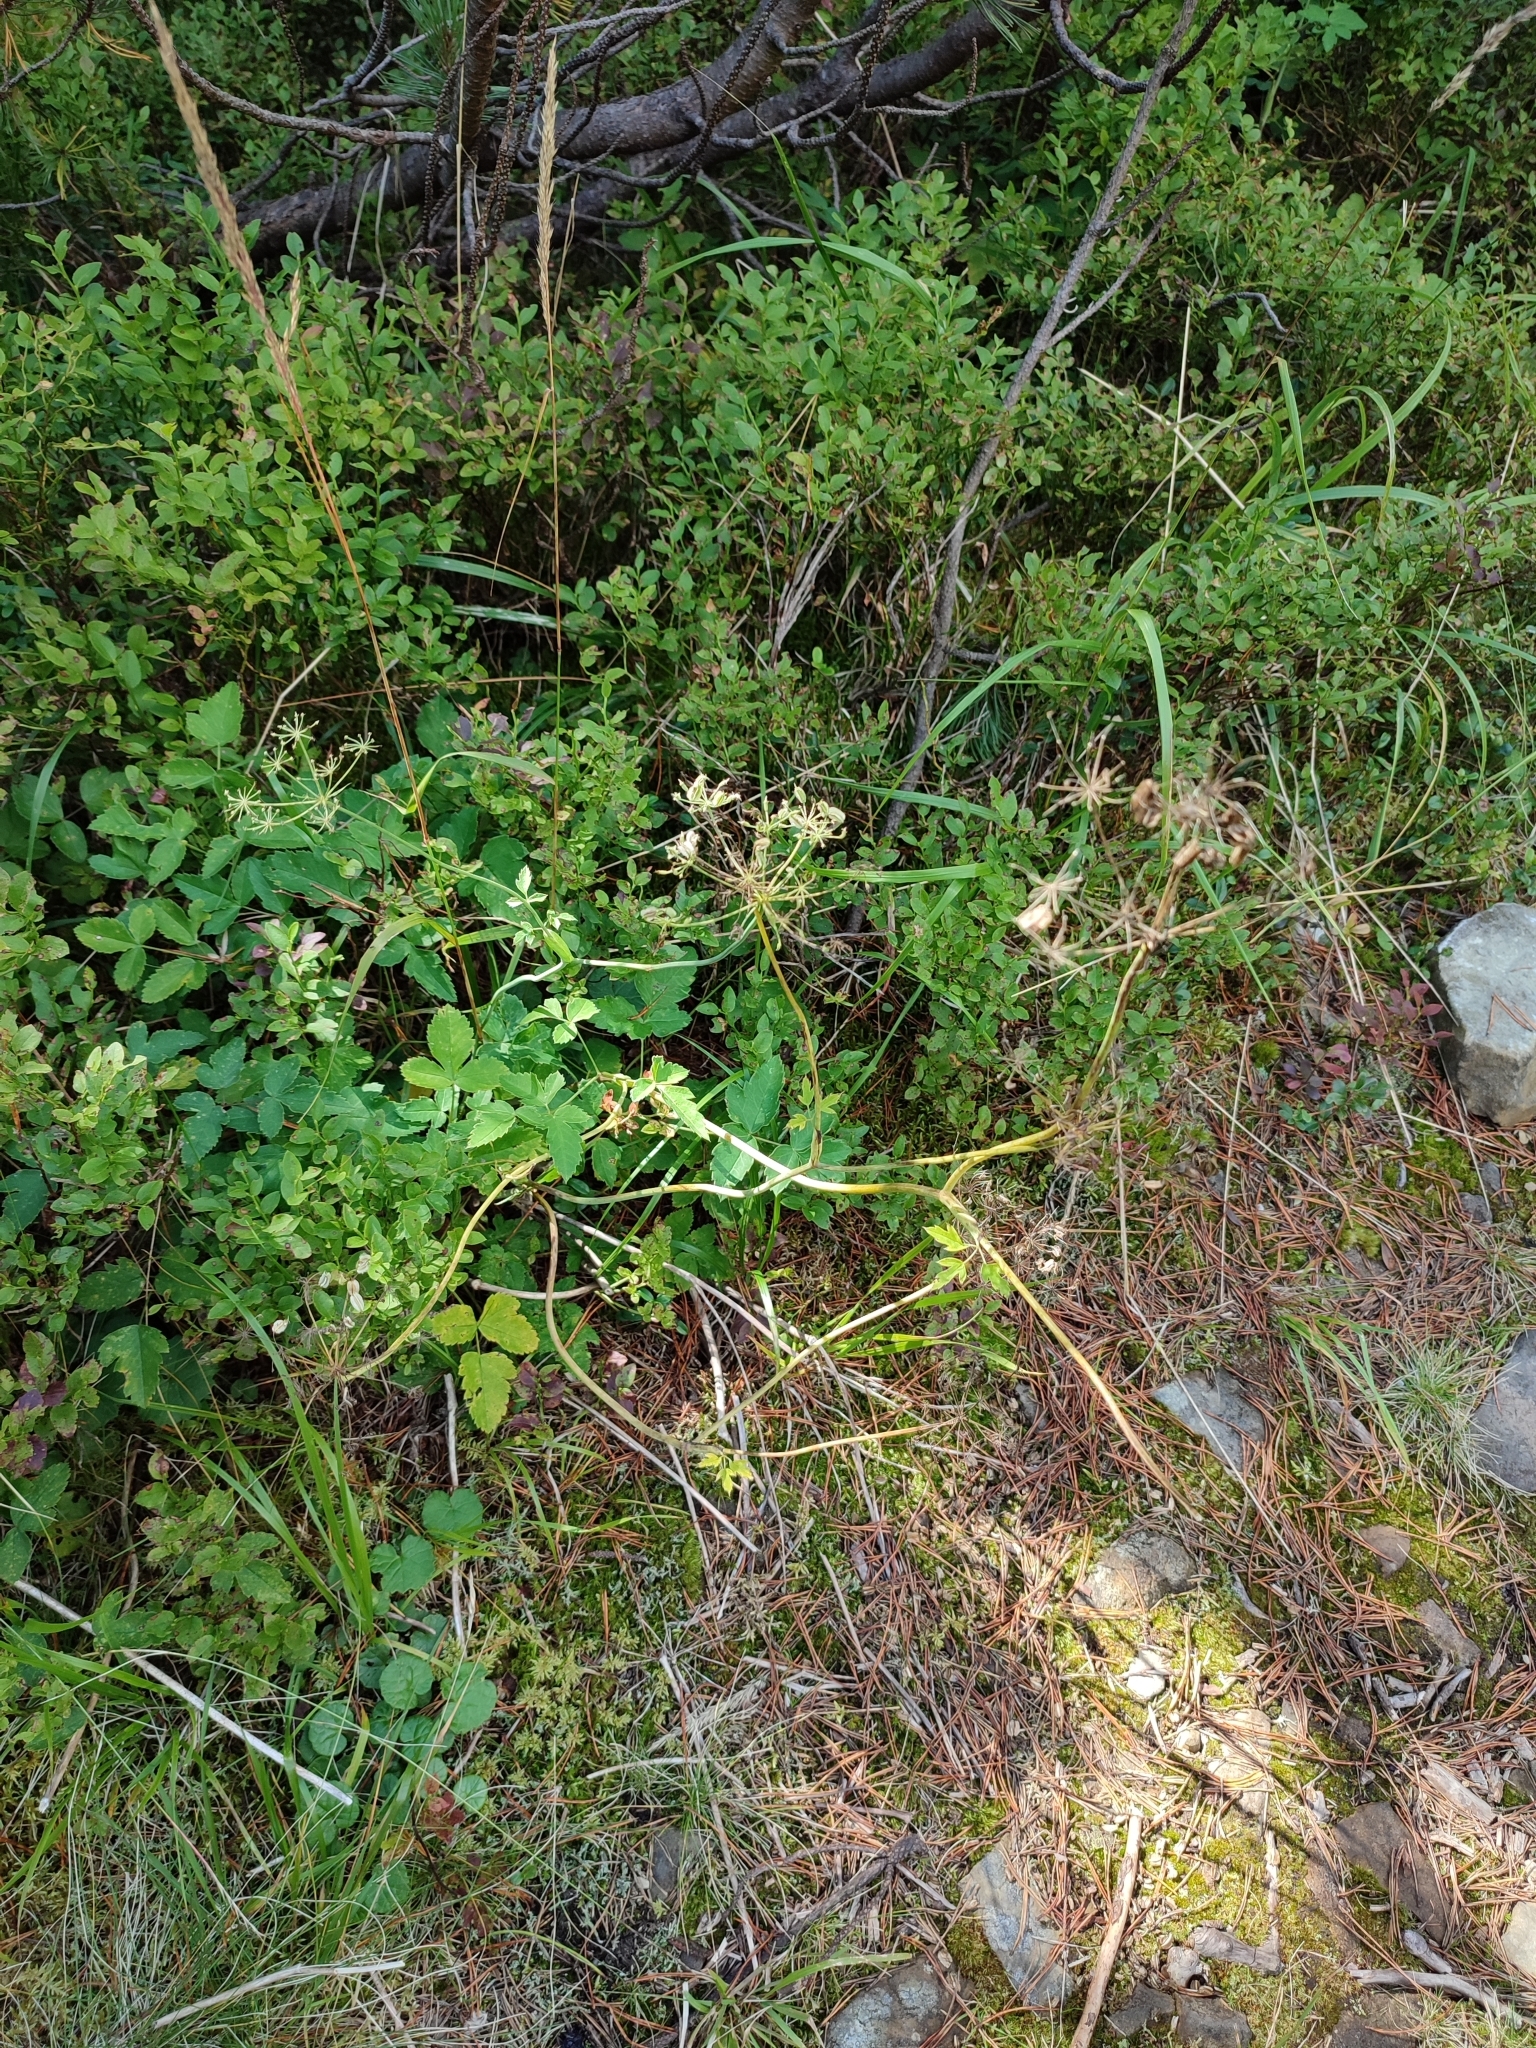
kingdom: Plantae
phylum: Tracheophyta
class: Magnoliopsida
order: Apiales
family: Apiaceae
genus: Laserpitium
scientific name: Laserpitium krapffii
